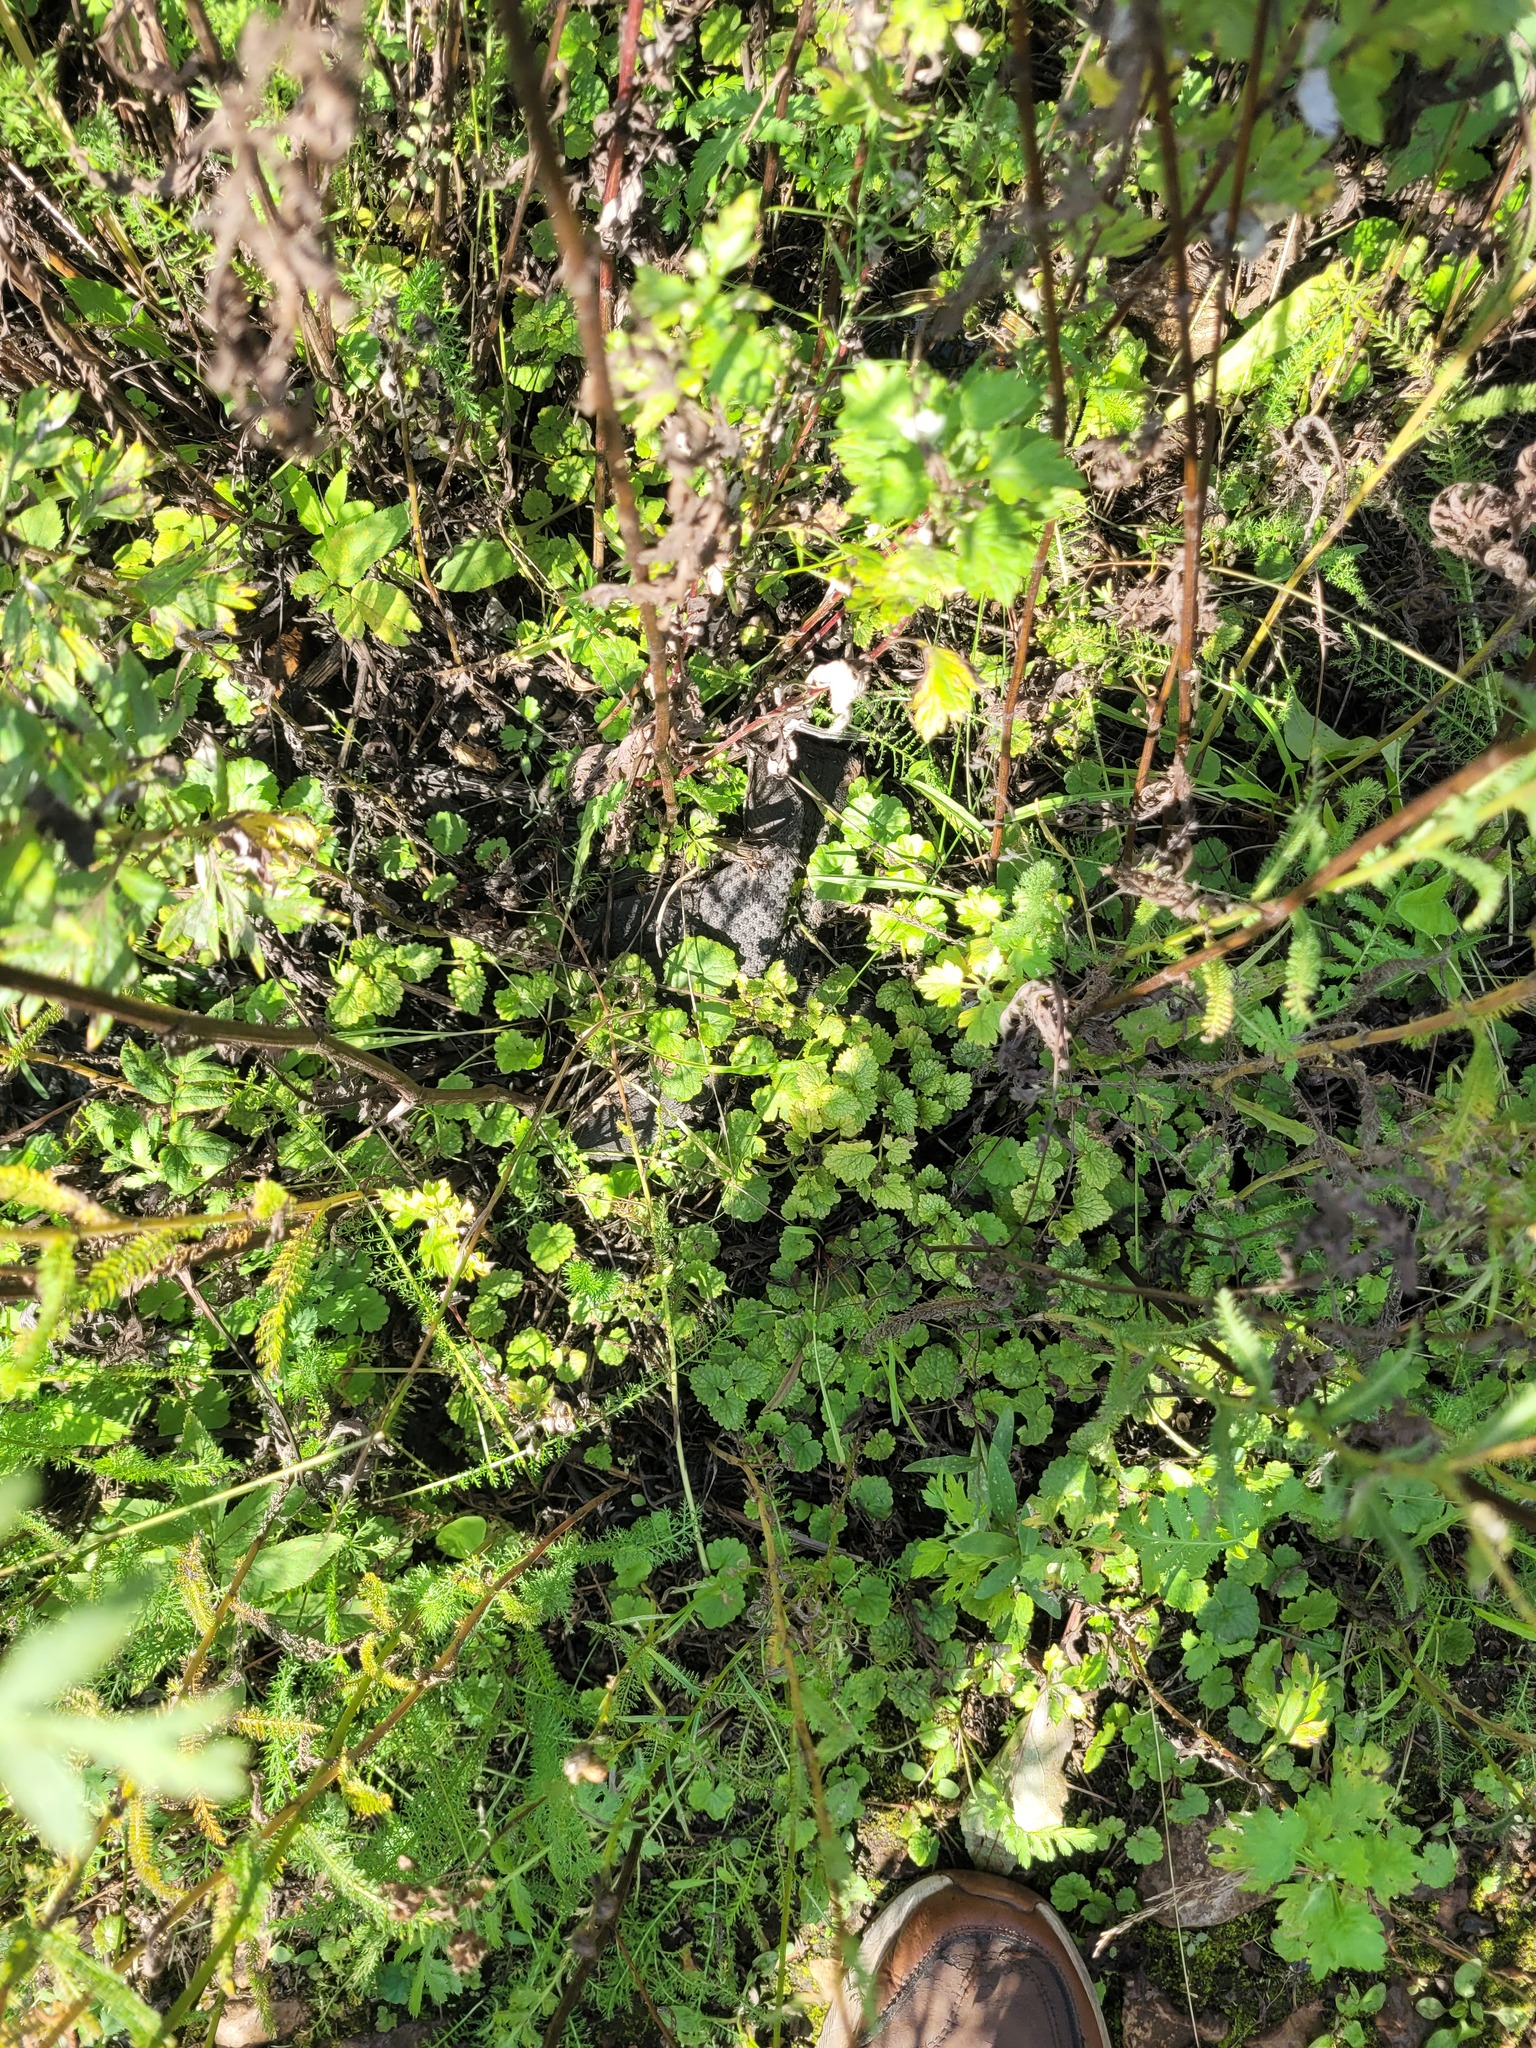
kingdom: Plantae
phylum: Tracheophyta
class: Magnoliopsida
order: Lamiales
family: Lamiaceae
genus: Glechoma
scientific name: Glechoma hederacea
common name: Ground ivy
